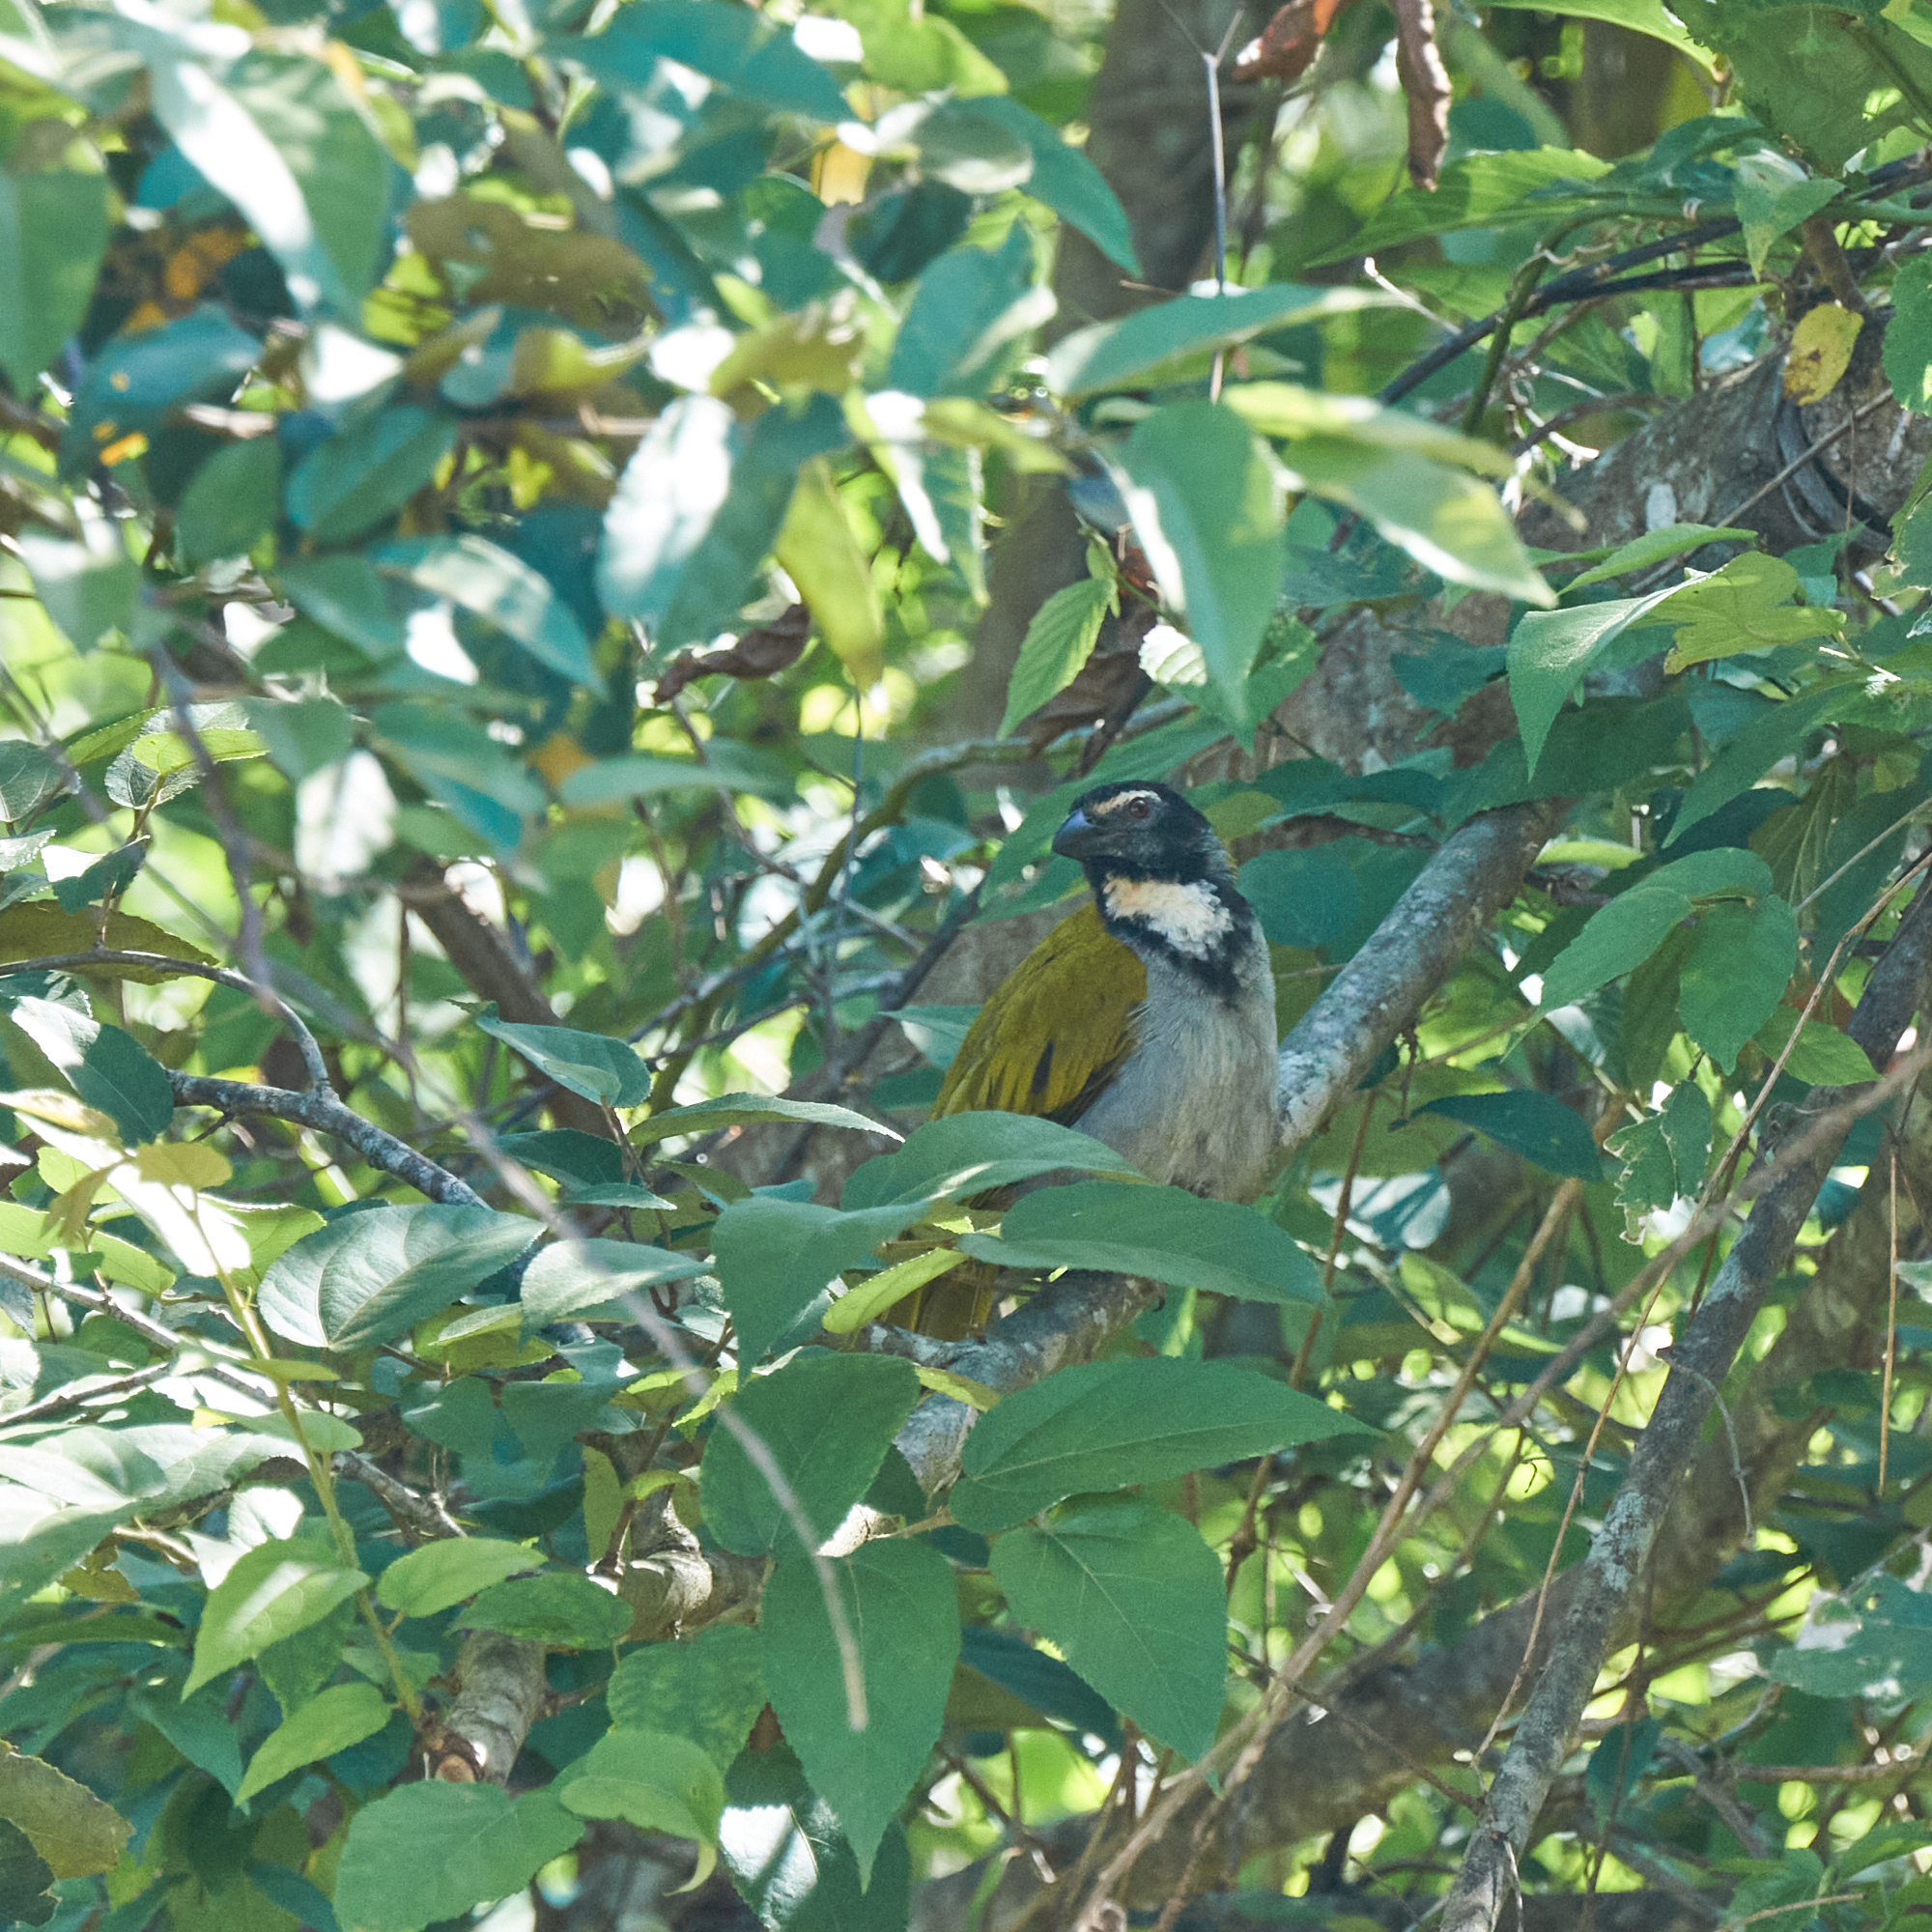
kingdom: Animalia
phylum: Chordata
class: Aves
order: Passeriformes
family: Thraupidae
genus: Saltator
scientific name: Saltator atriceps
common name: Black-headed saltator
